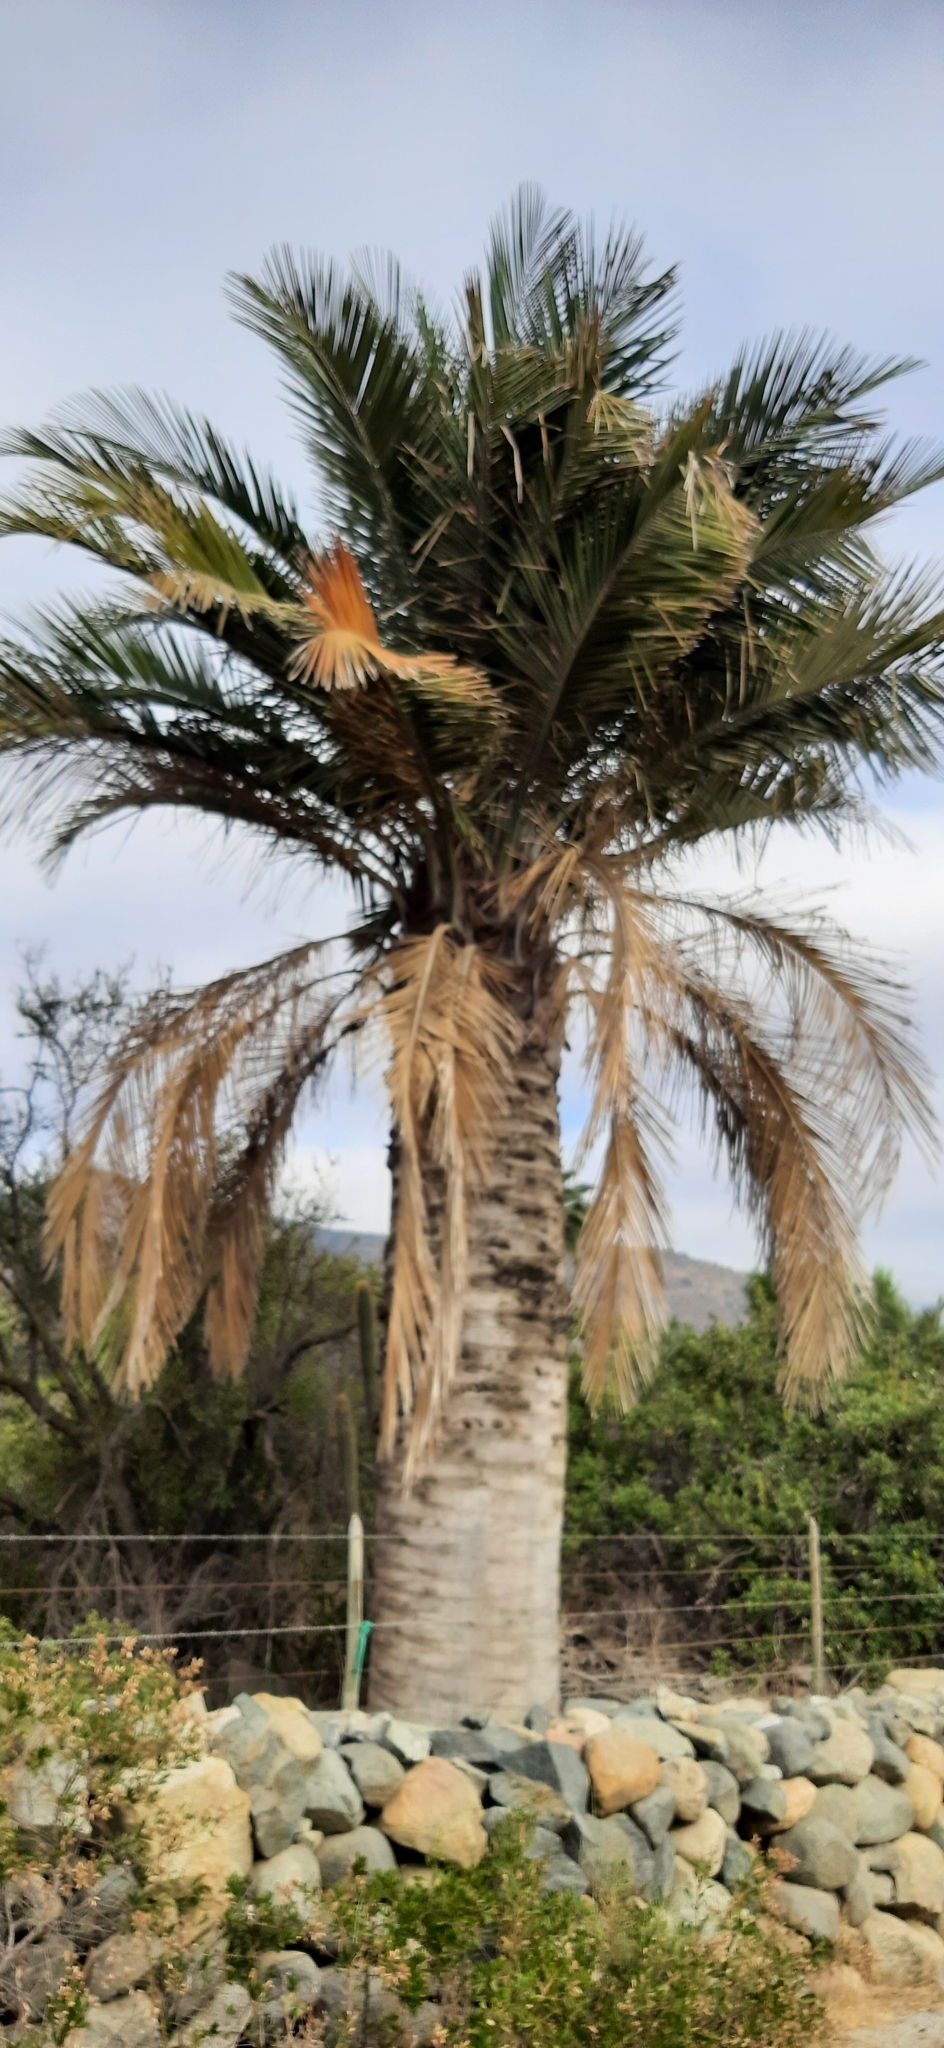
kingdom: Plantae
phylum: Tracheophyta
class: Liliopsida
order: Arecales
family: Arecaceae
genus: Jubaea
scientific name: Jubaea chilensis
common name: Coquito palm
